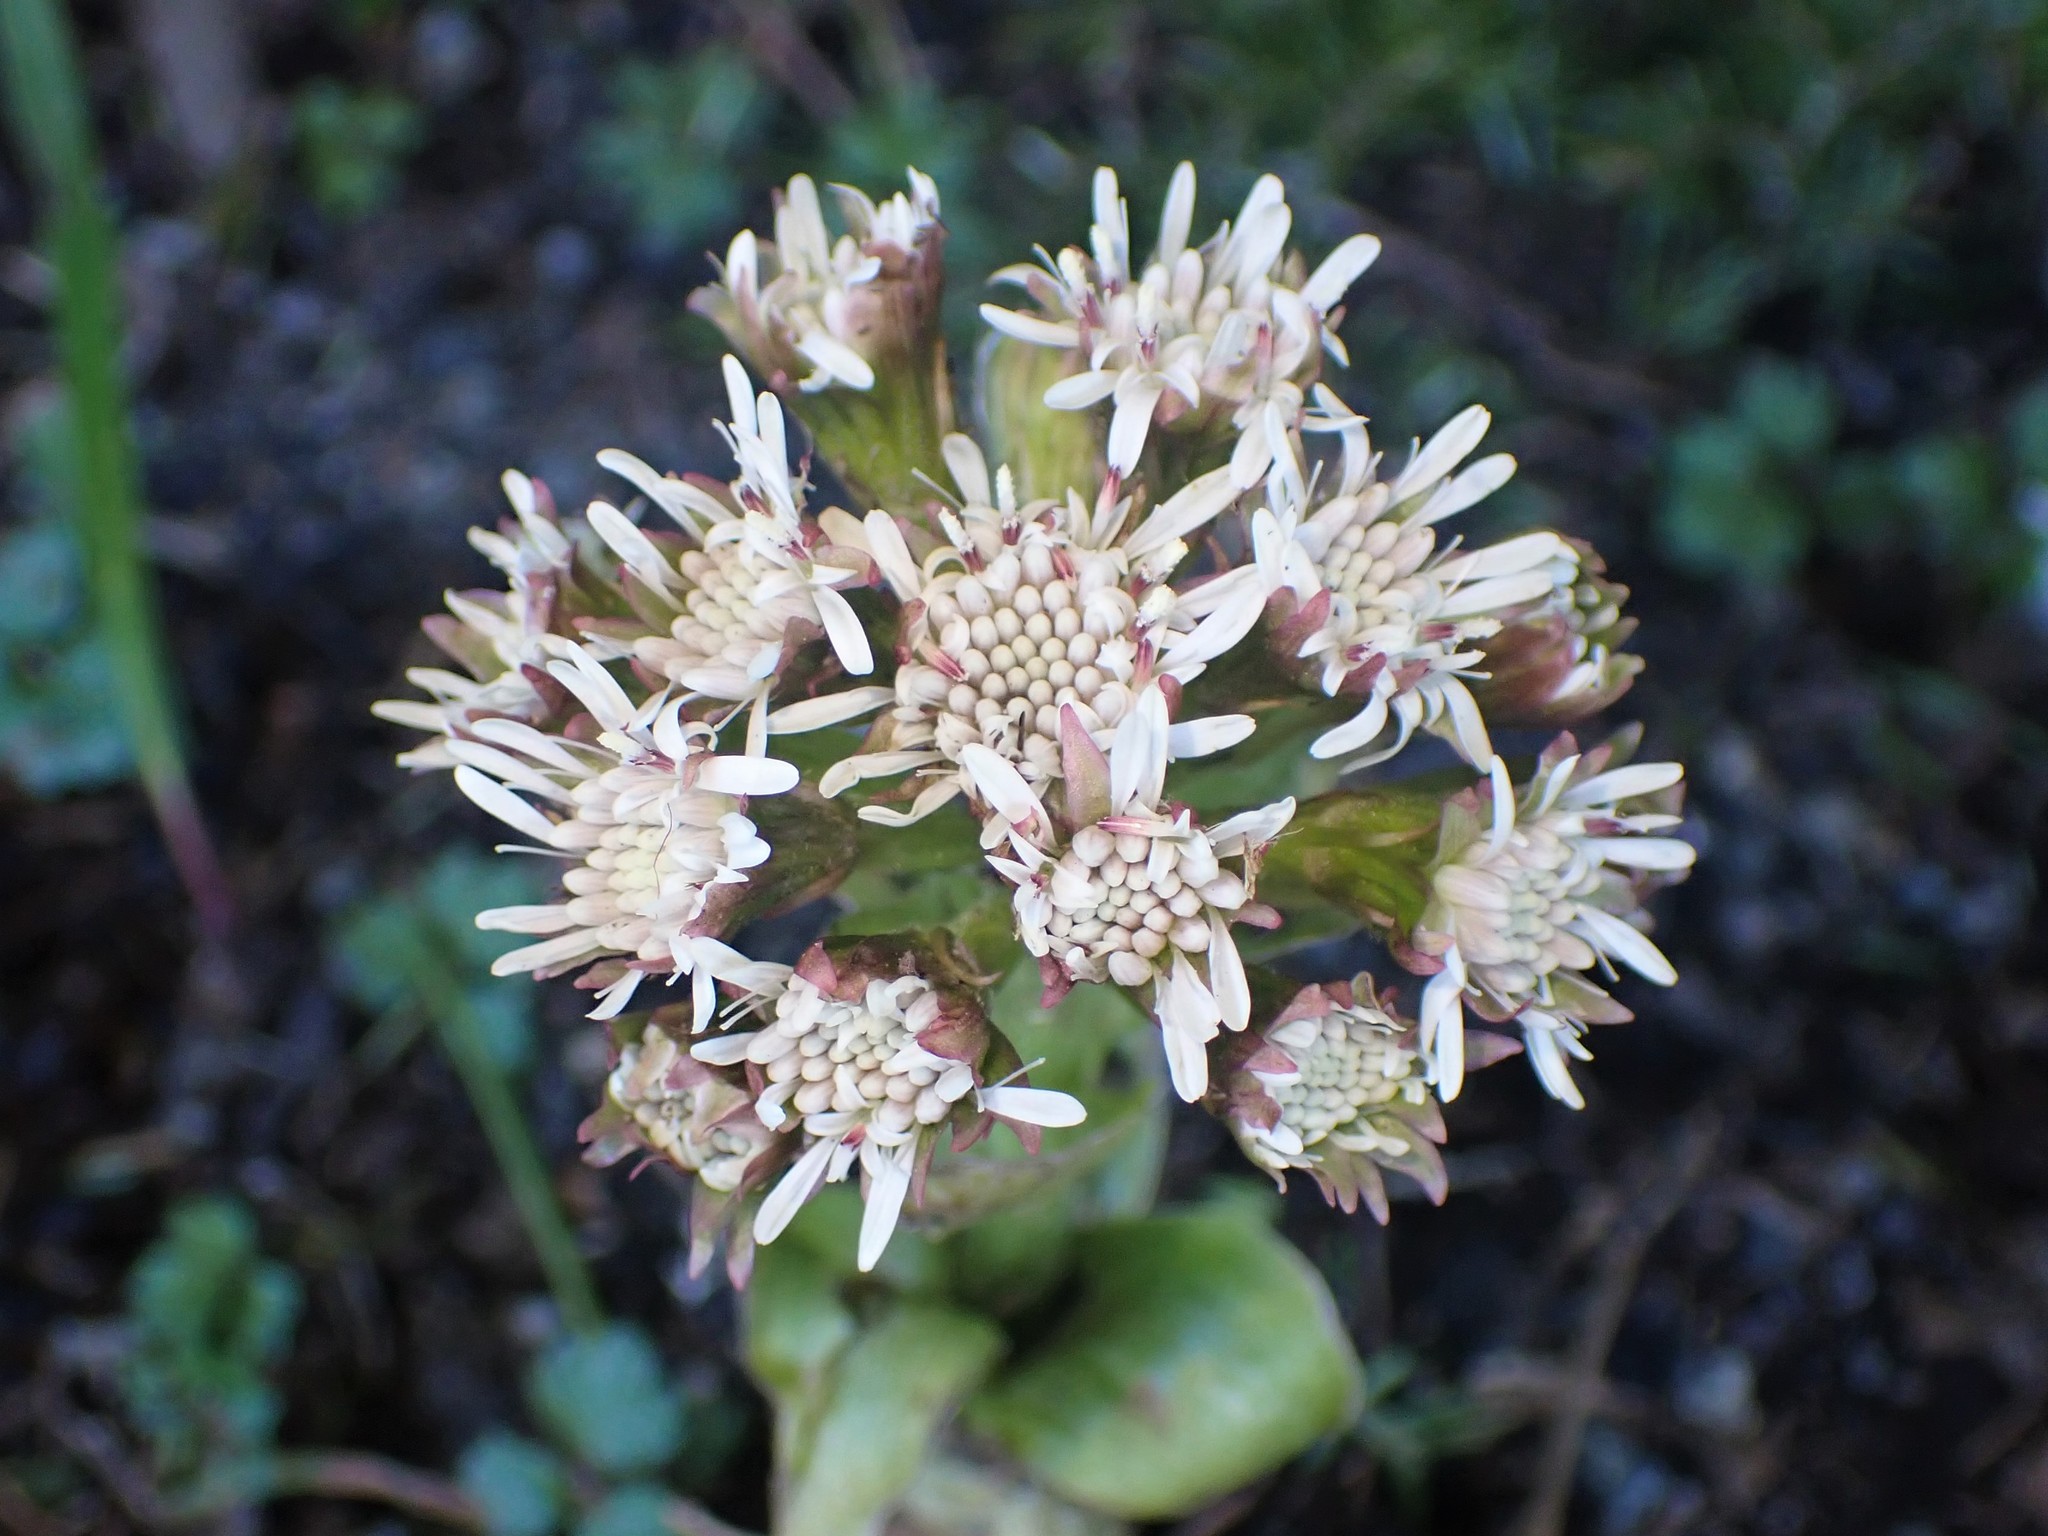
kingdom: Plantae
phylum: Tracheophyta
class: Magnoliopsida
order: Asterales
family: Asteraceae
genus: Petasites
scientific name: Petasites frigidus
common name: Arctic butterbur
